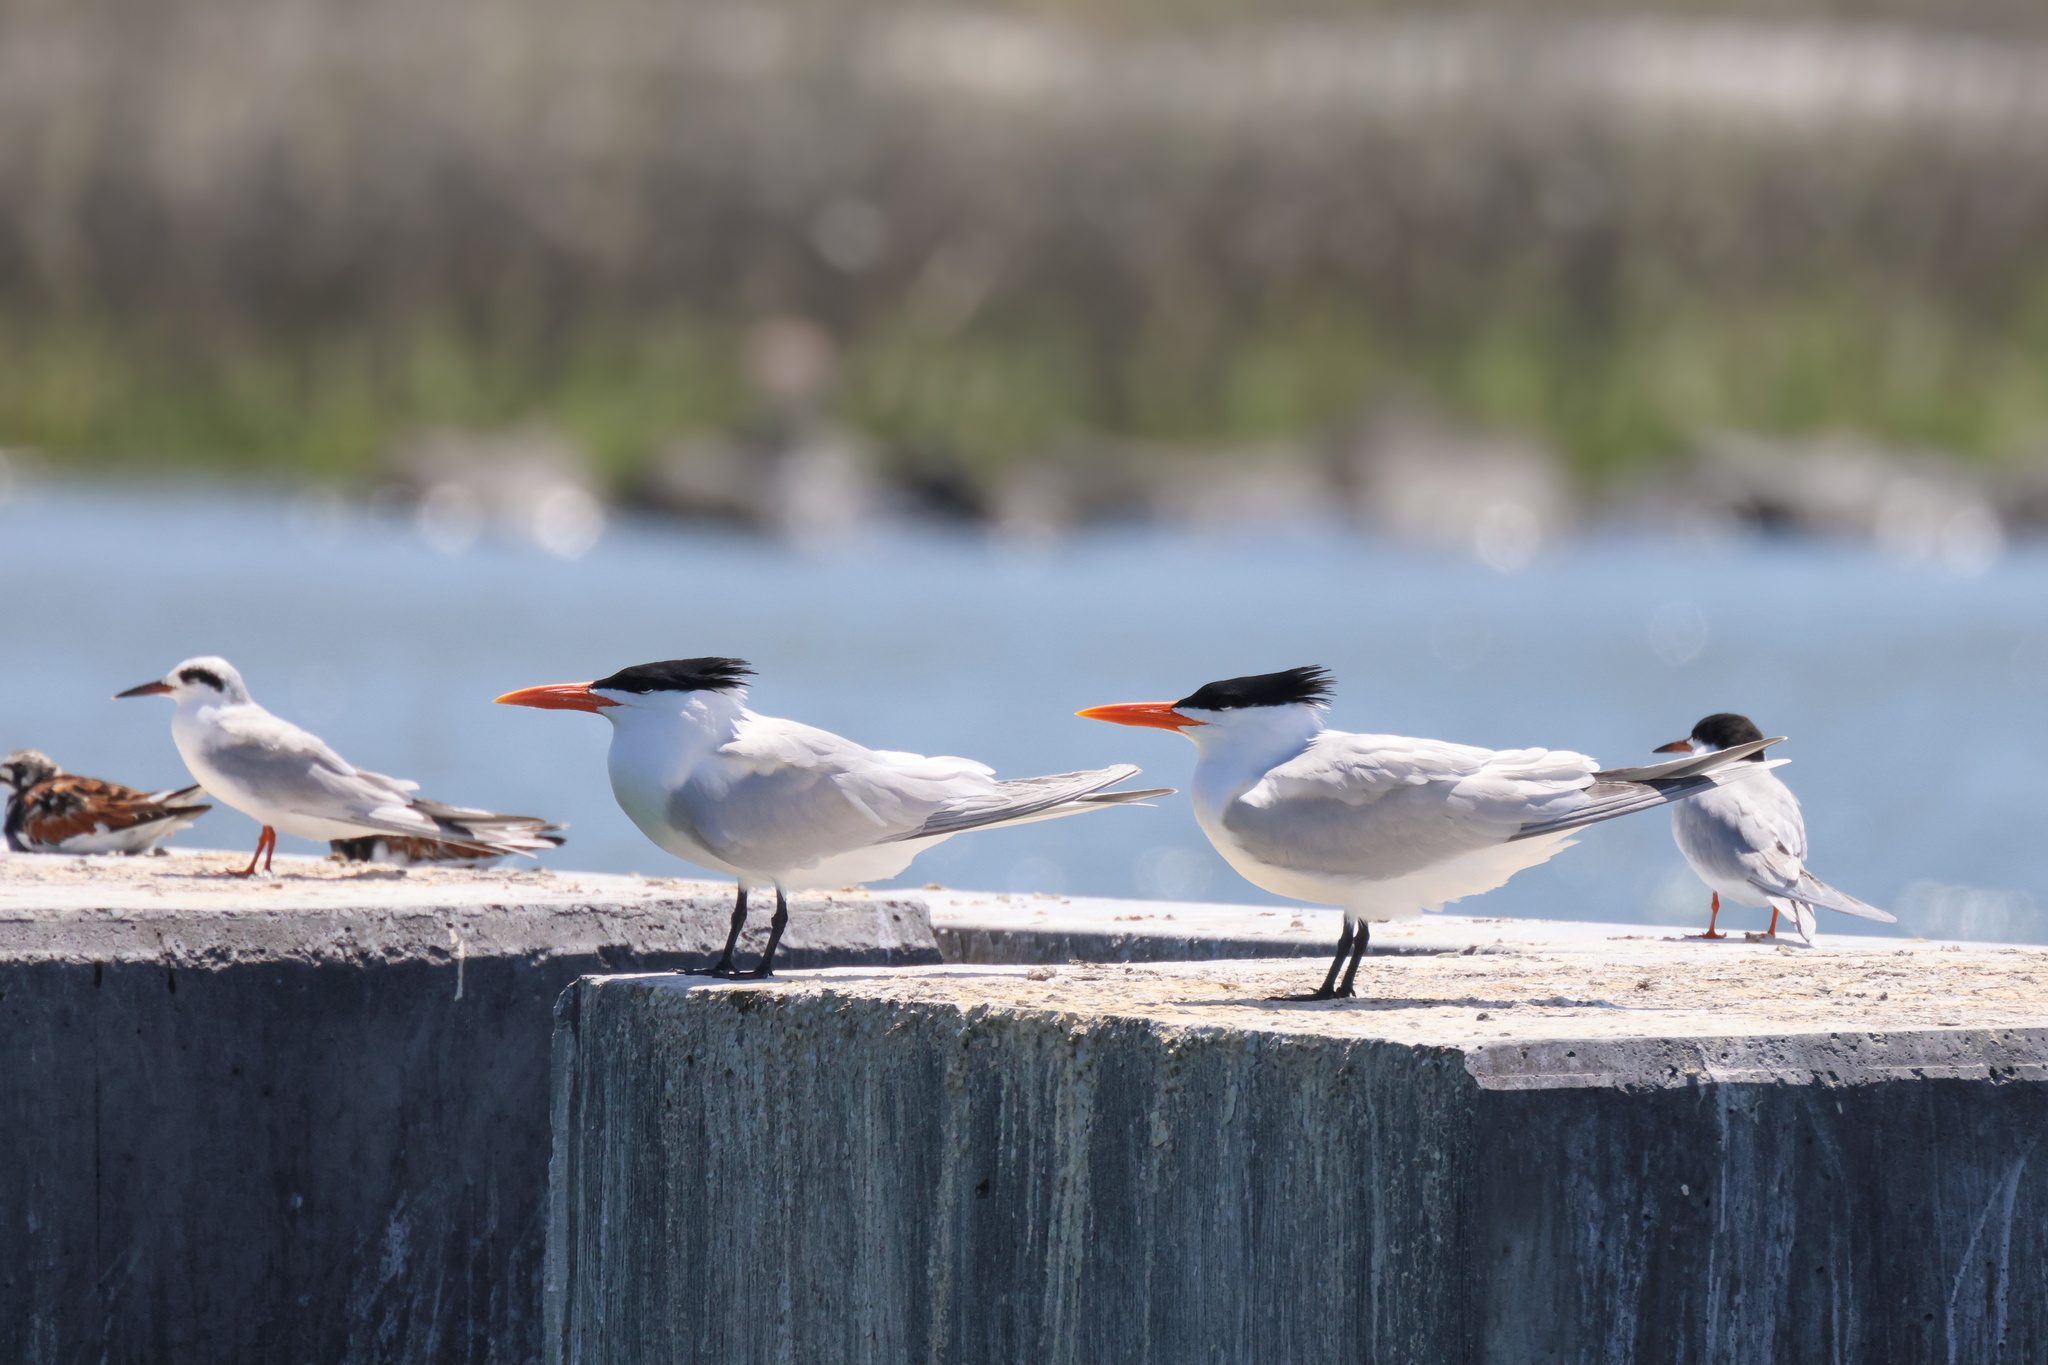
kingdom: Animalia
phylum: Chordata
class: Aves
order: Charadriiformes
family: Laridae
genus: Thalasseus
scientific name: Thalasseus maximus
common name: Royal tern
